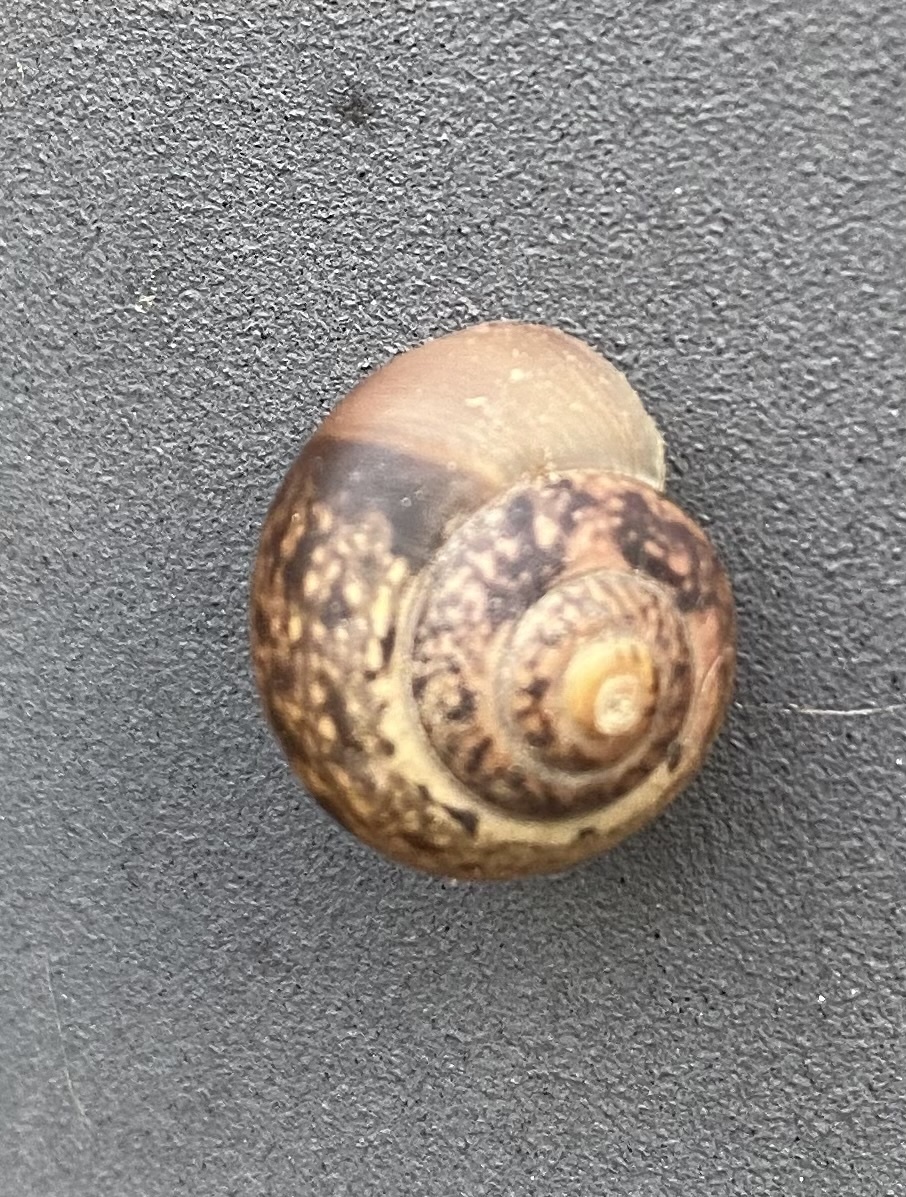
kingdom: Animalia
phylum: Mollusca
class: Gastropoda
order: Stylommatophora
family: Camaenidae
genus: Fruticicola
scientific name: Fruticicola fruticum
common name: Bush snail
